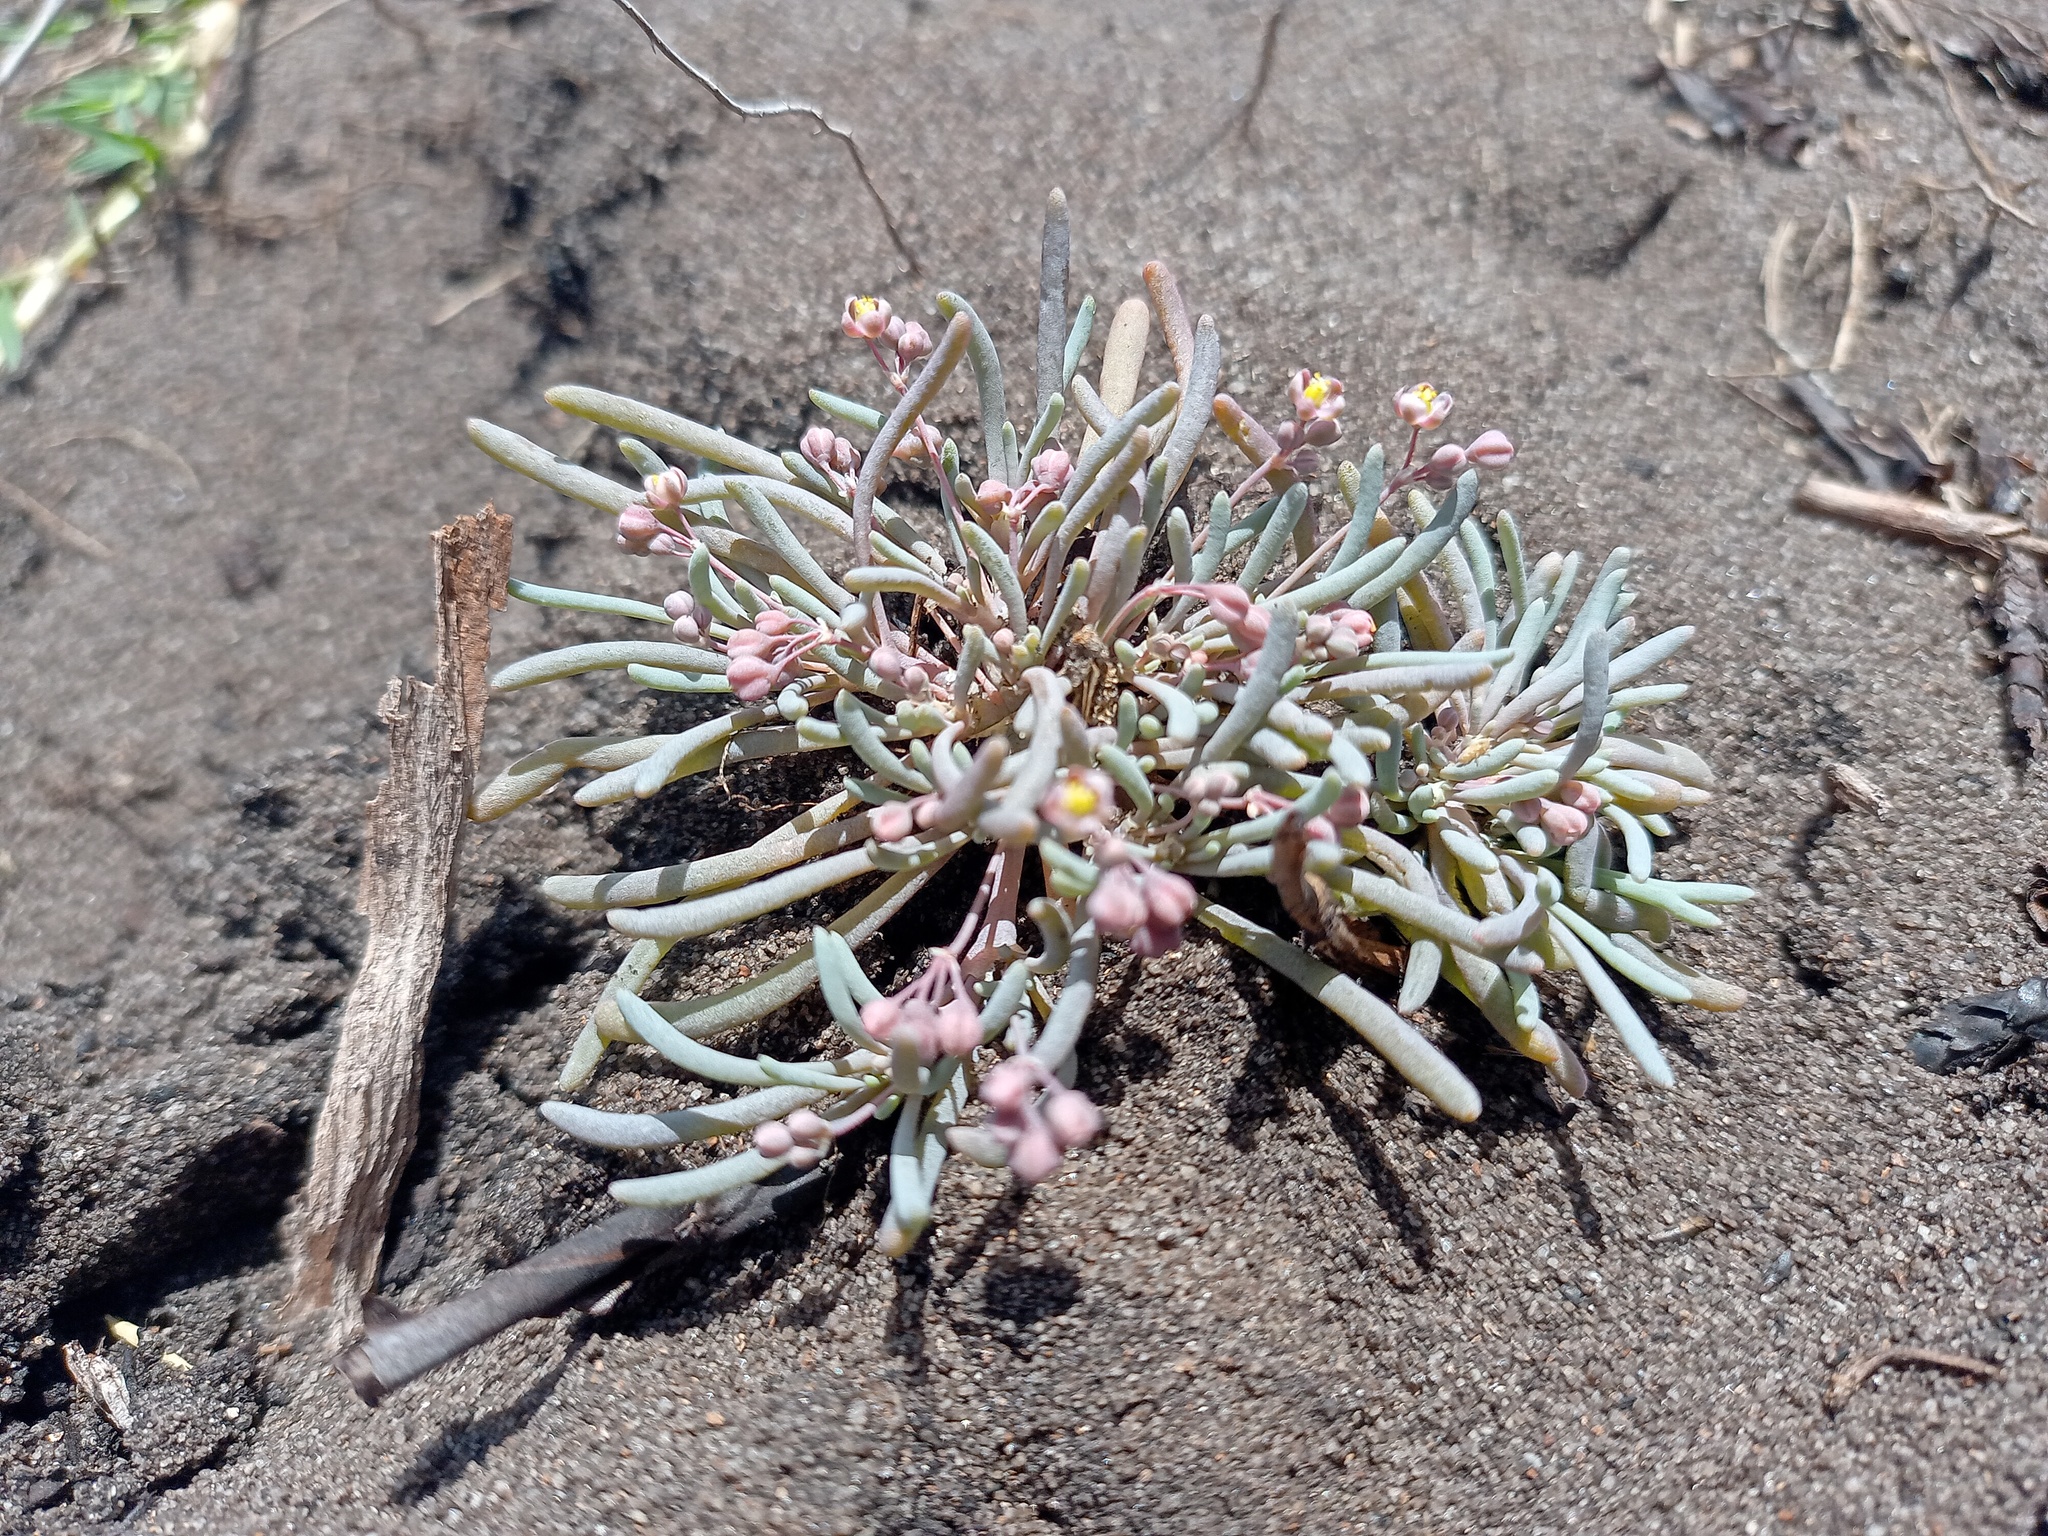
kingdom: Plantae
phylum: Tracheophyta
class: Magnoliopsida
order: Caryophyllales
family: Kewaceae
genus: Kewa
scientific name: Kewa arenicola
